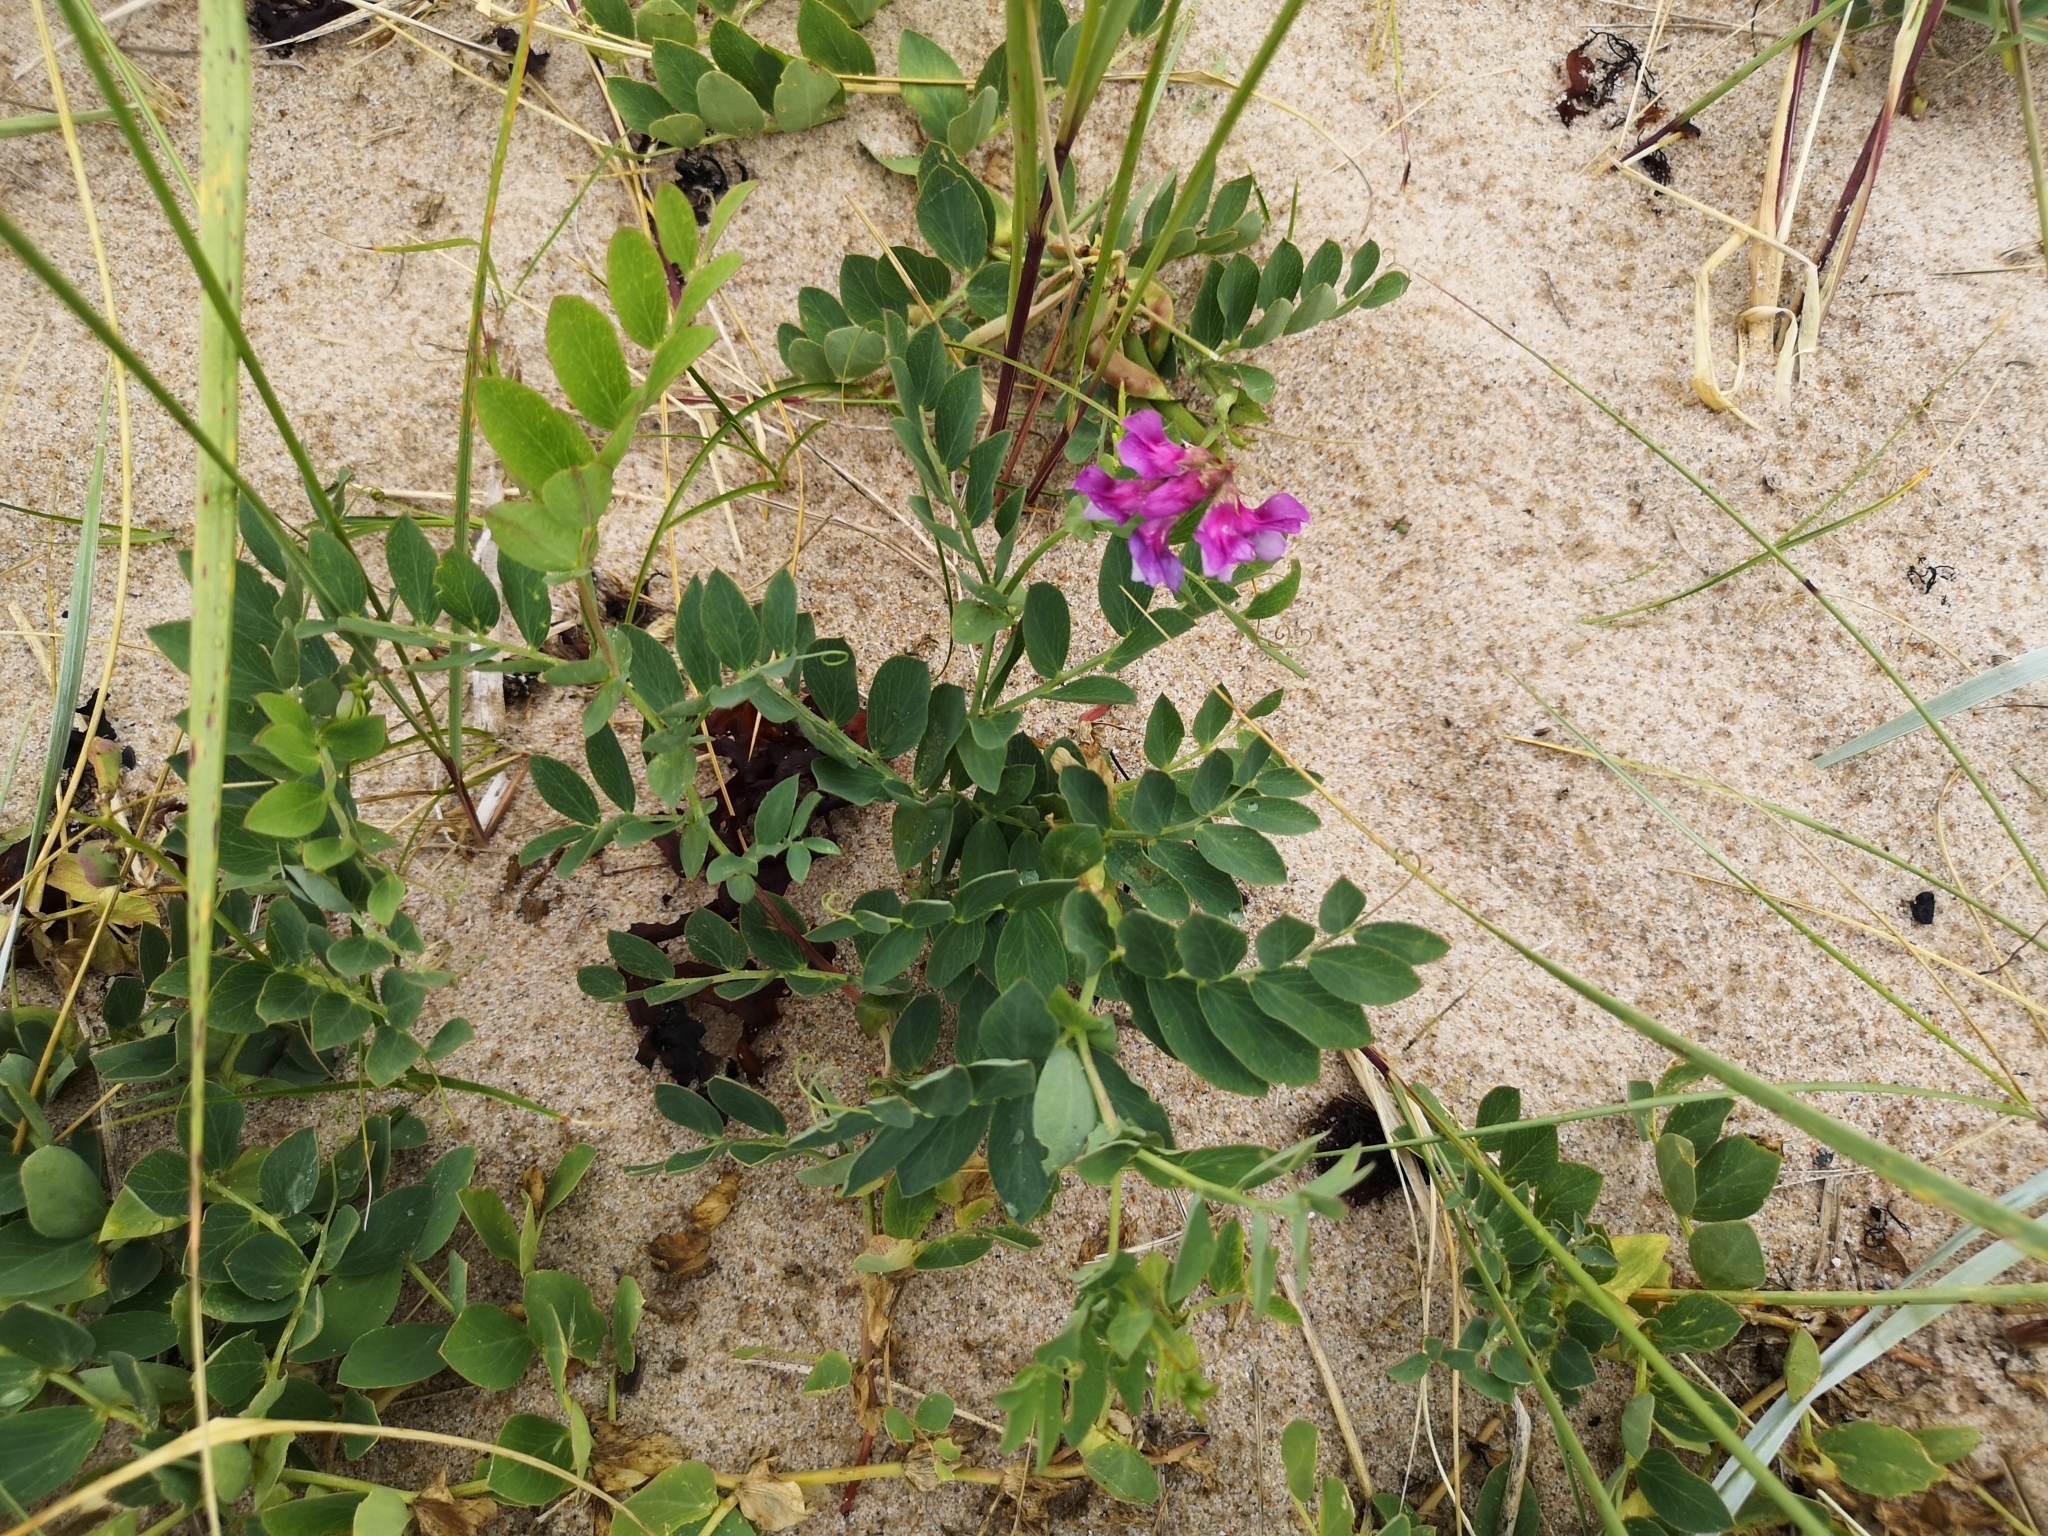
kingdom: Plantae
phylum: Tracheophyta
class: Magnoliopsida
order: Fabales
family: Fabaceae
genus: Lathyrus
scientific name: Lathyrus japonicus
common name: Sea pea
